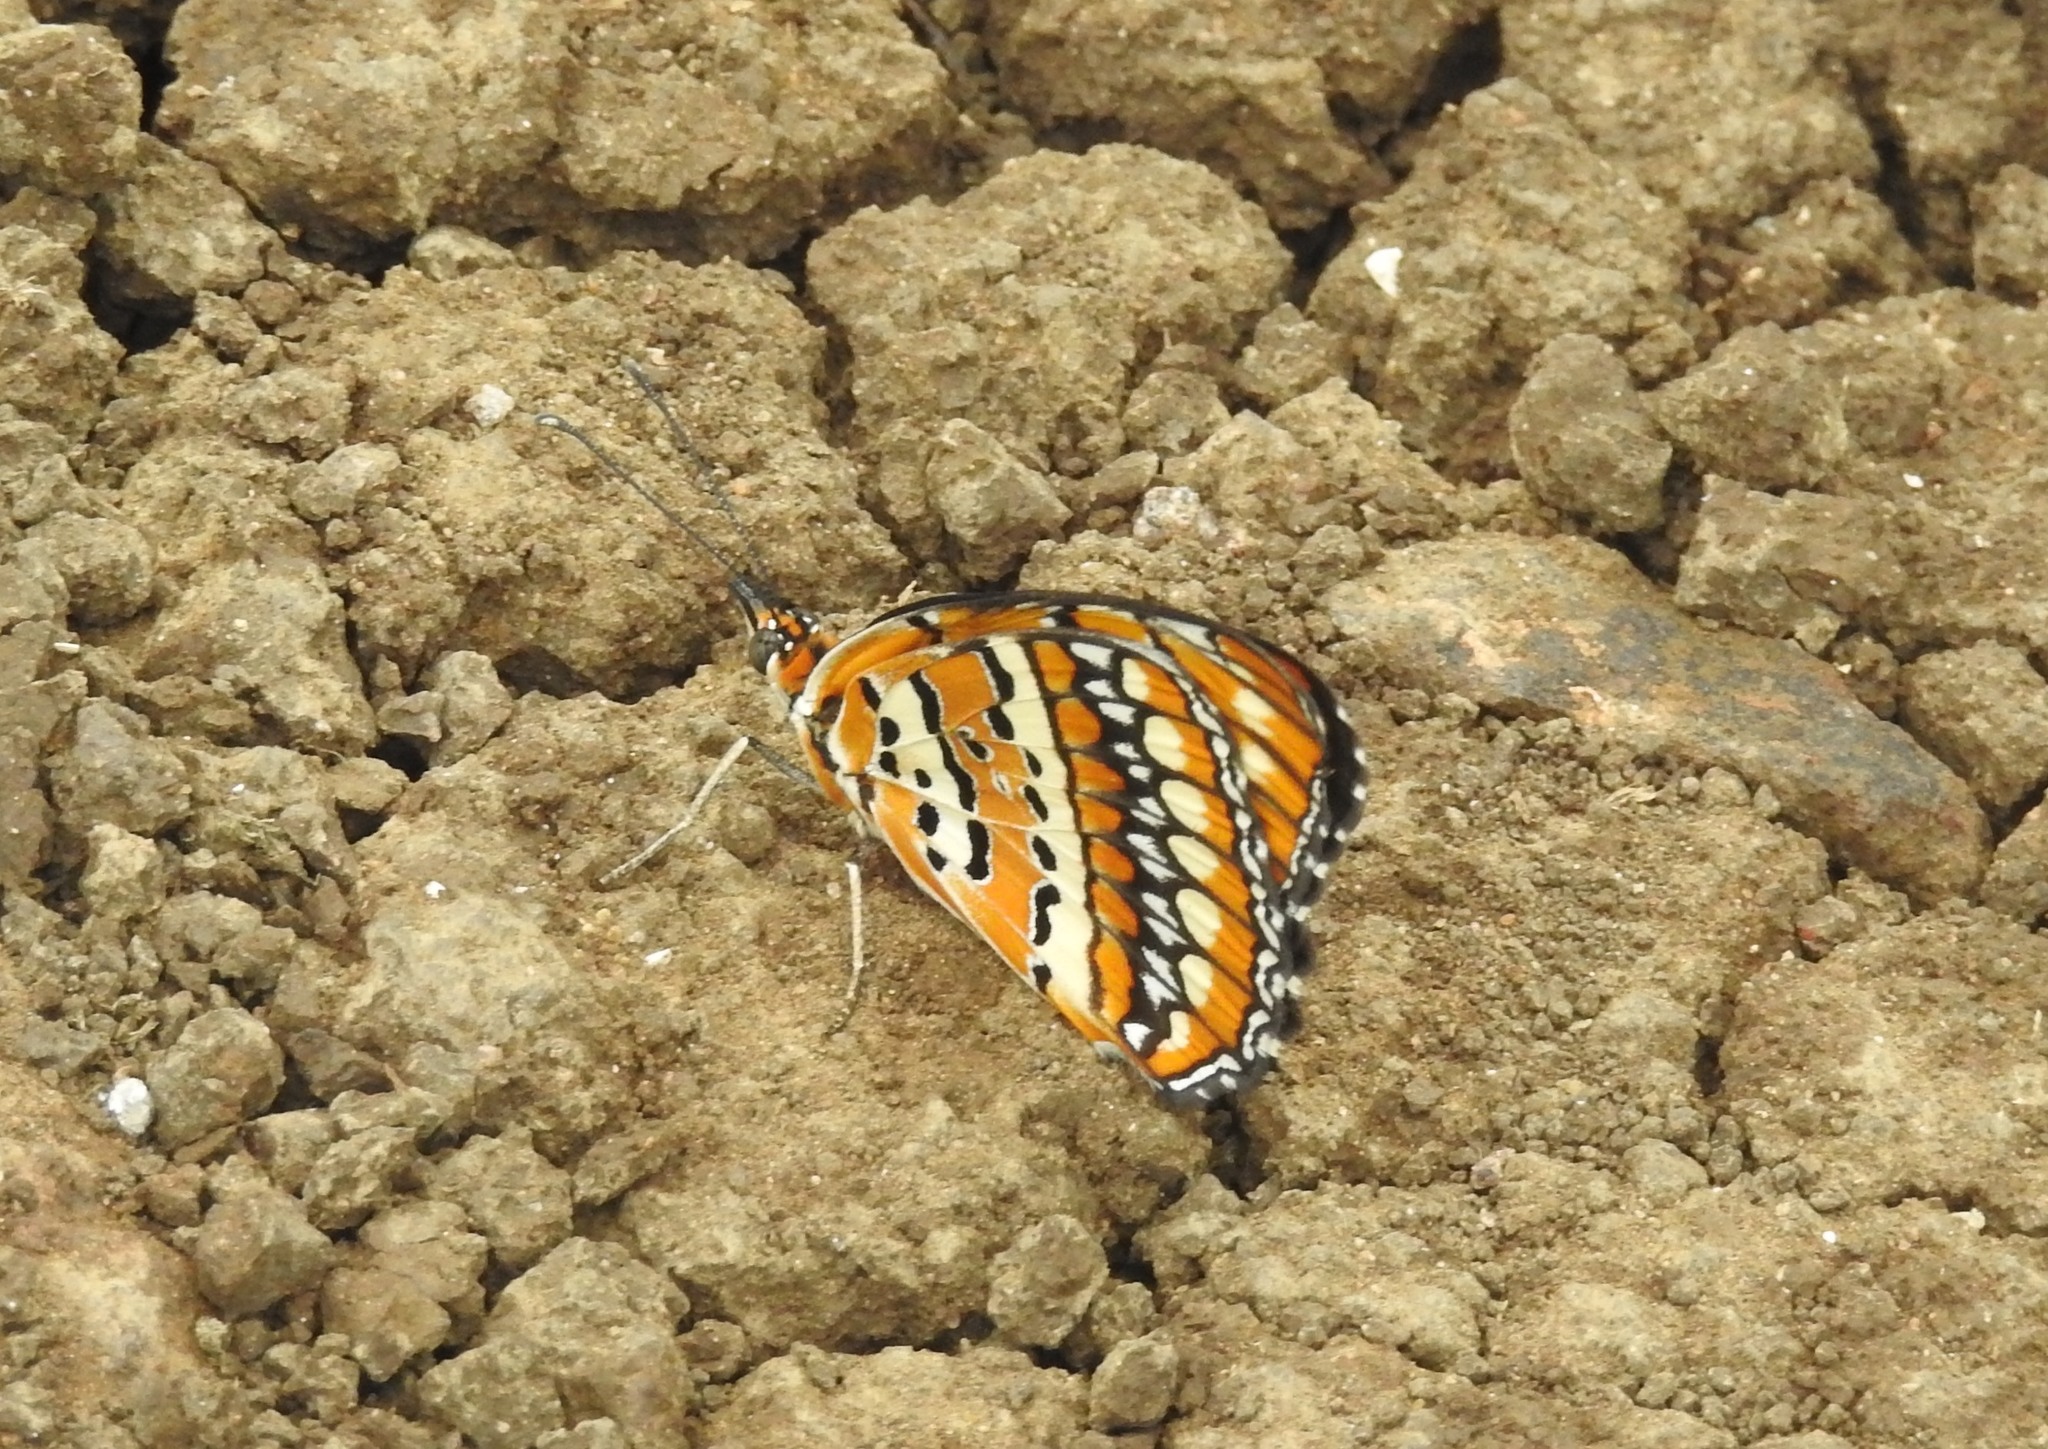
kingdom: Animalia
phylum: Arthropoda
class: Insecta
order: Lepidoptera
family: Nymphalidae
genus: Byblia
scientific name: Byblia ilithyia
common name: Spotted joker
